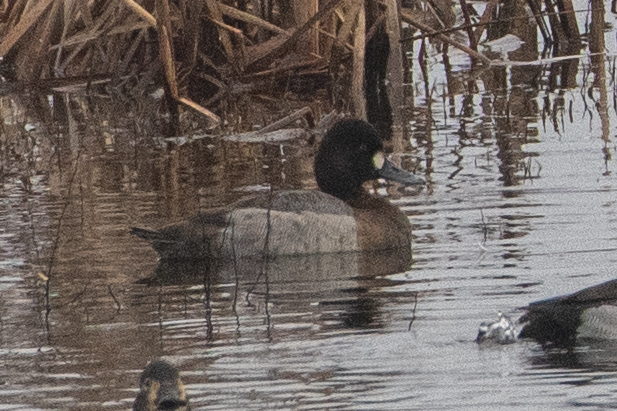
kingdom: Animalia
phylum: Chordata
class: Aves
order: Anseriformes
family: Anatidae
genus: Aythya
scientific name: Aythya affinis
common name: Lesser scaup
